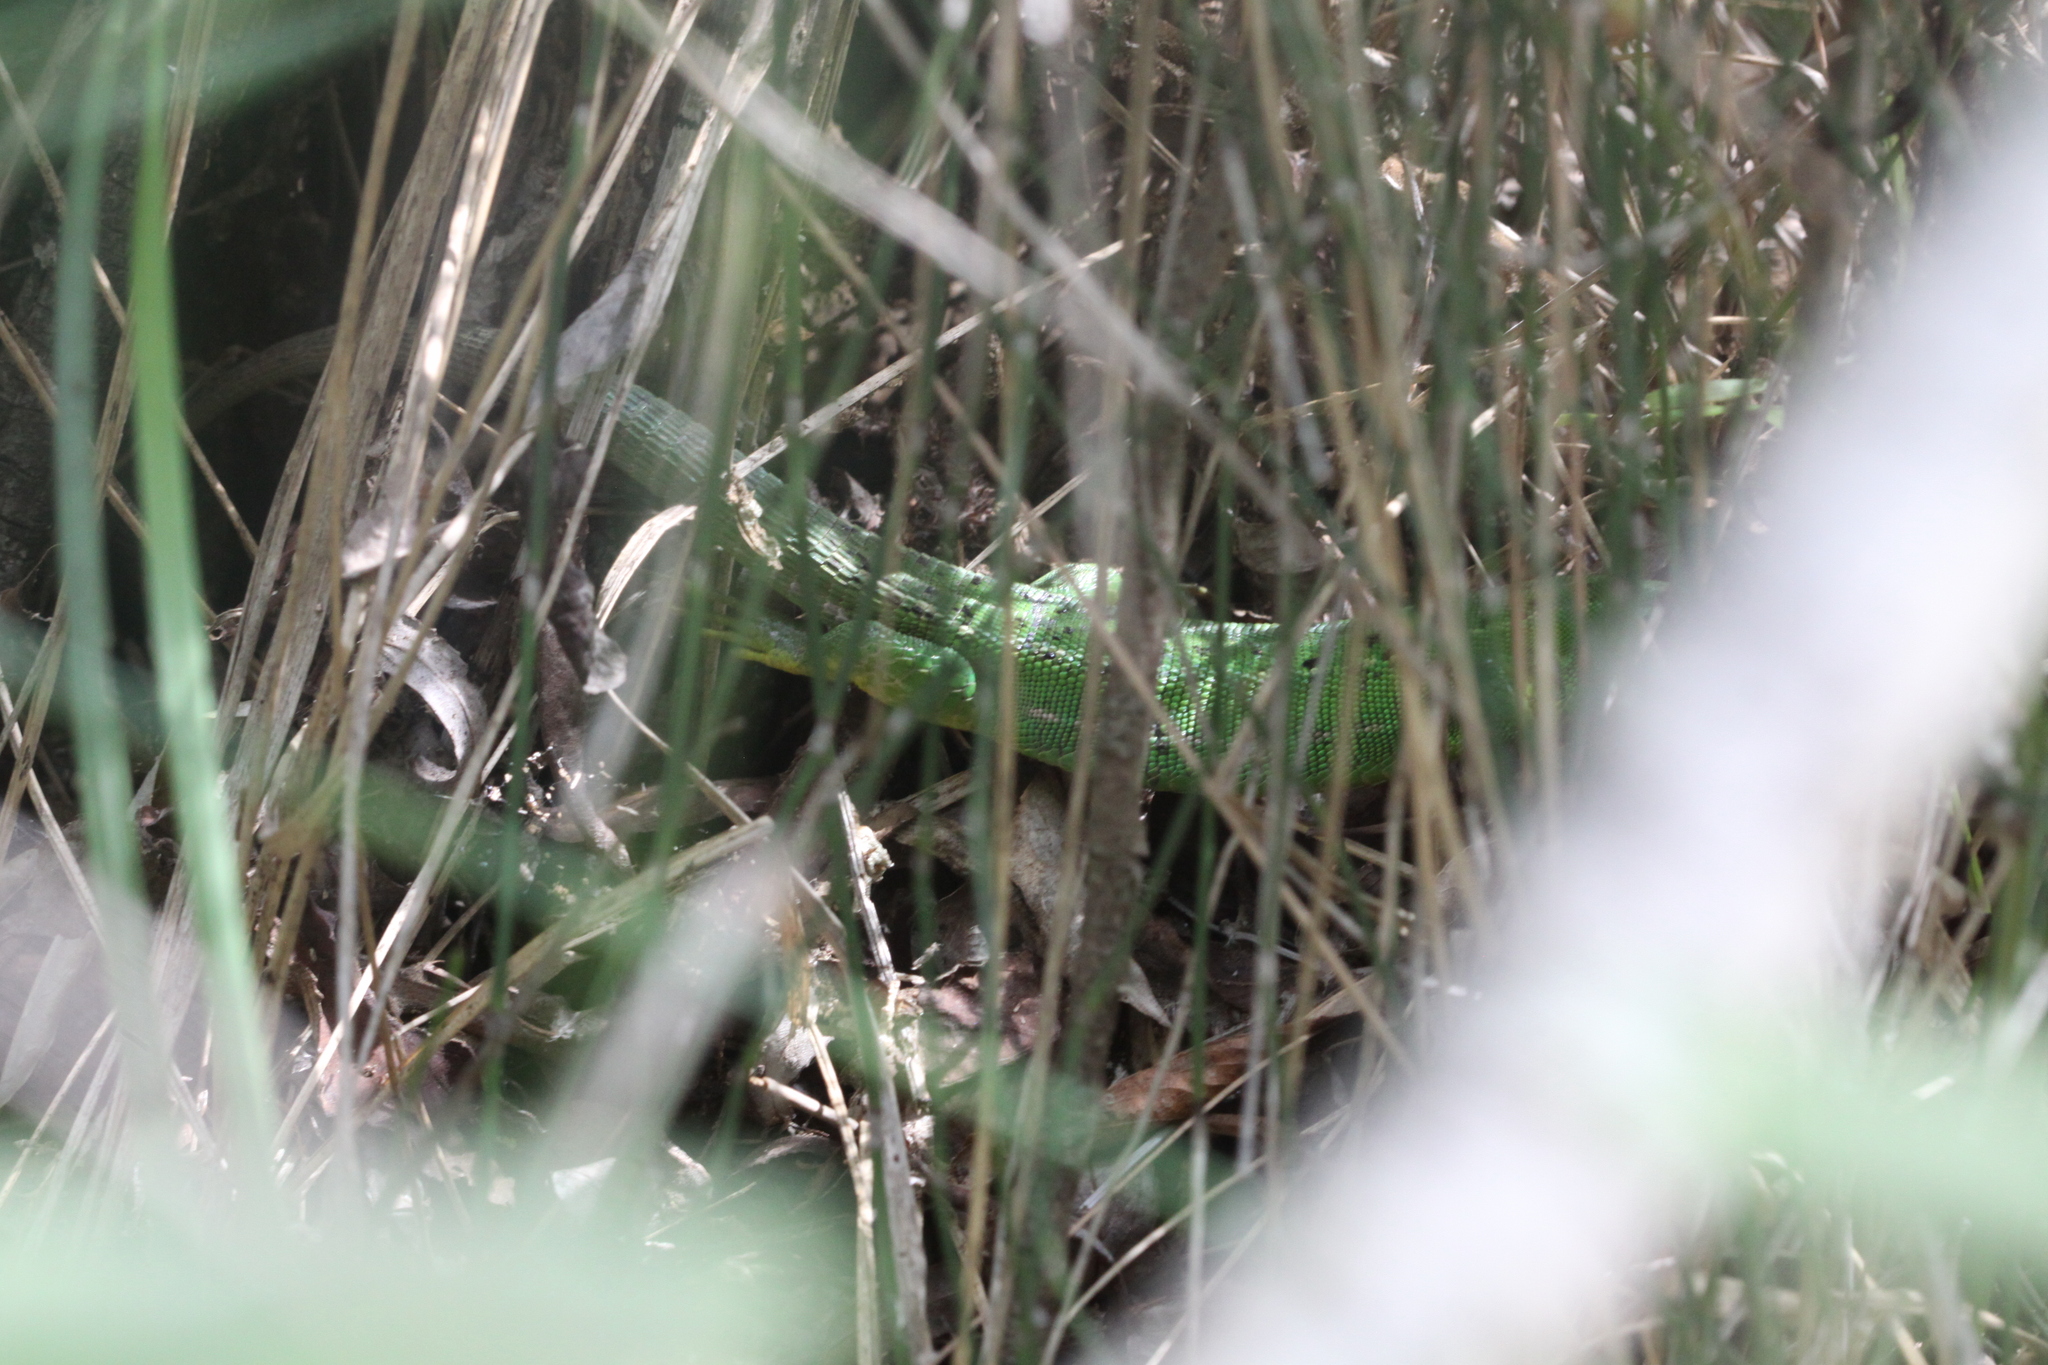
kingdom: Animalia
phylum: Chordata
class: Squamata
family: Lacertidae
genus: Lacerta
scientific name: Lacerta bilineata
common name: Western green lizard
